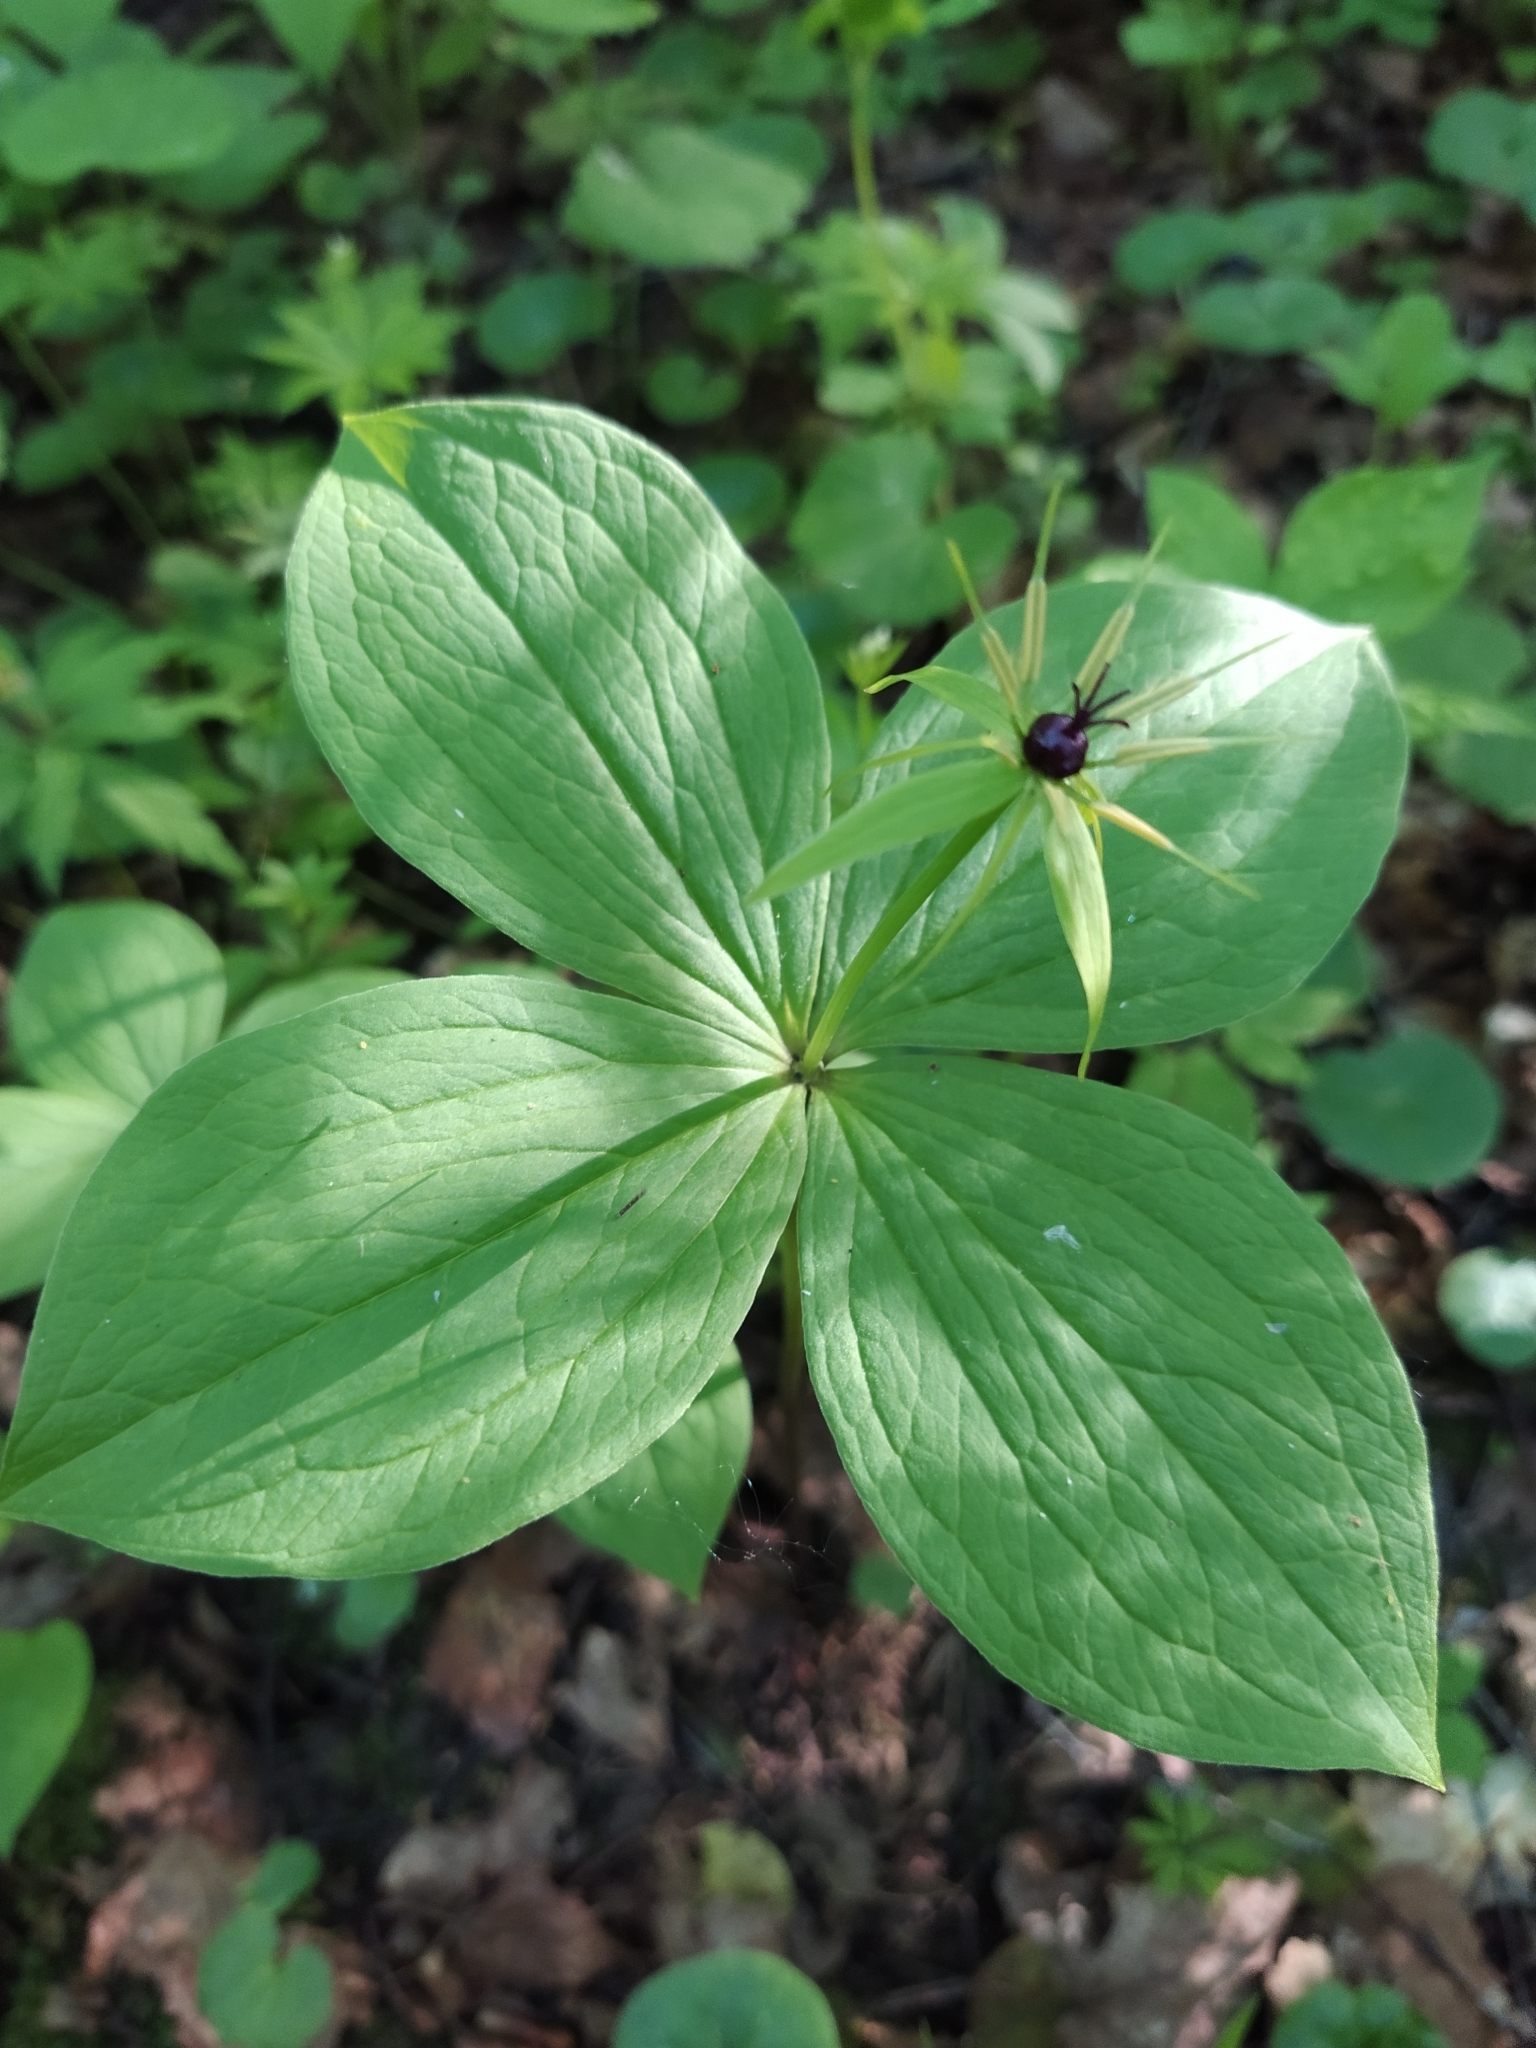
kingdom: Plantae
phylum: Tracheophyta
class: Liliopsida
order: Liliales
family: Melanthiaceae
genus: Paris
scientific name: Paris quadrifolia
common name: Herb-paris
